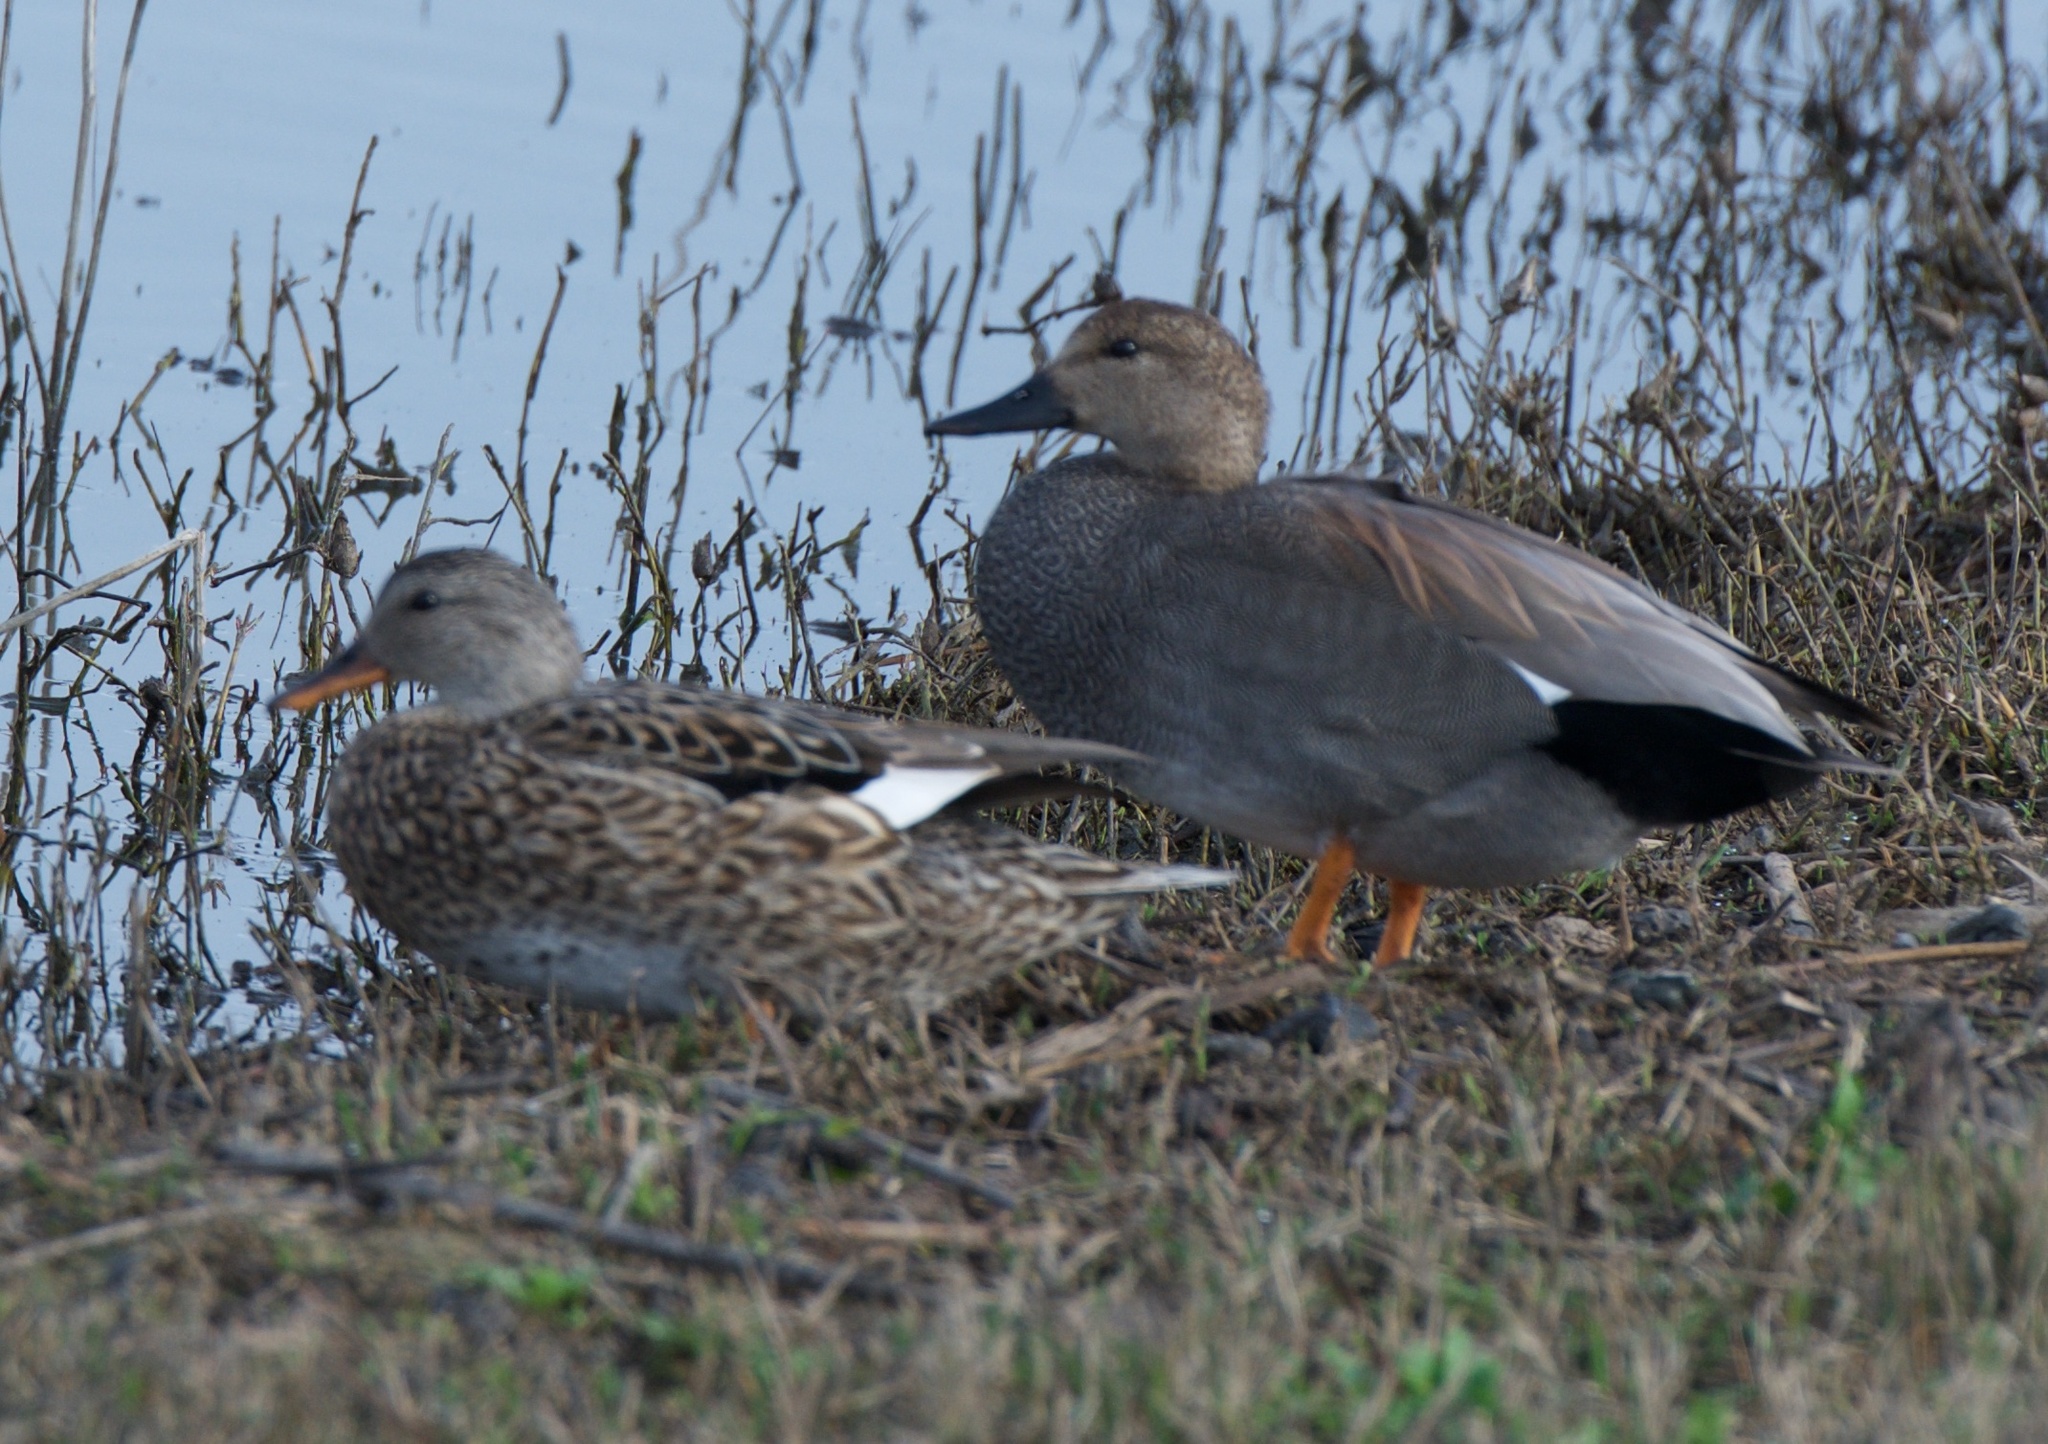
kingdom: Animalia
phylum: Chordata
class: Aves
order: Anseriformes
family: Anatidae
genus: Mareca
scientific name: Mareca strepera
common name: Gadwall
